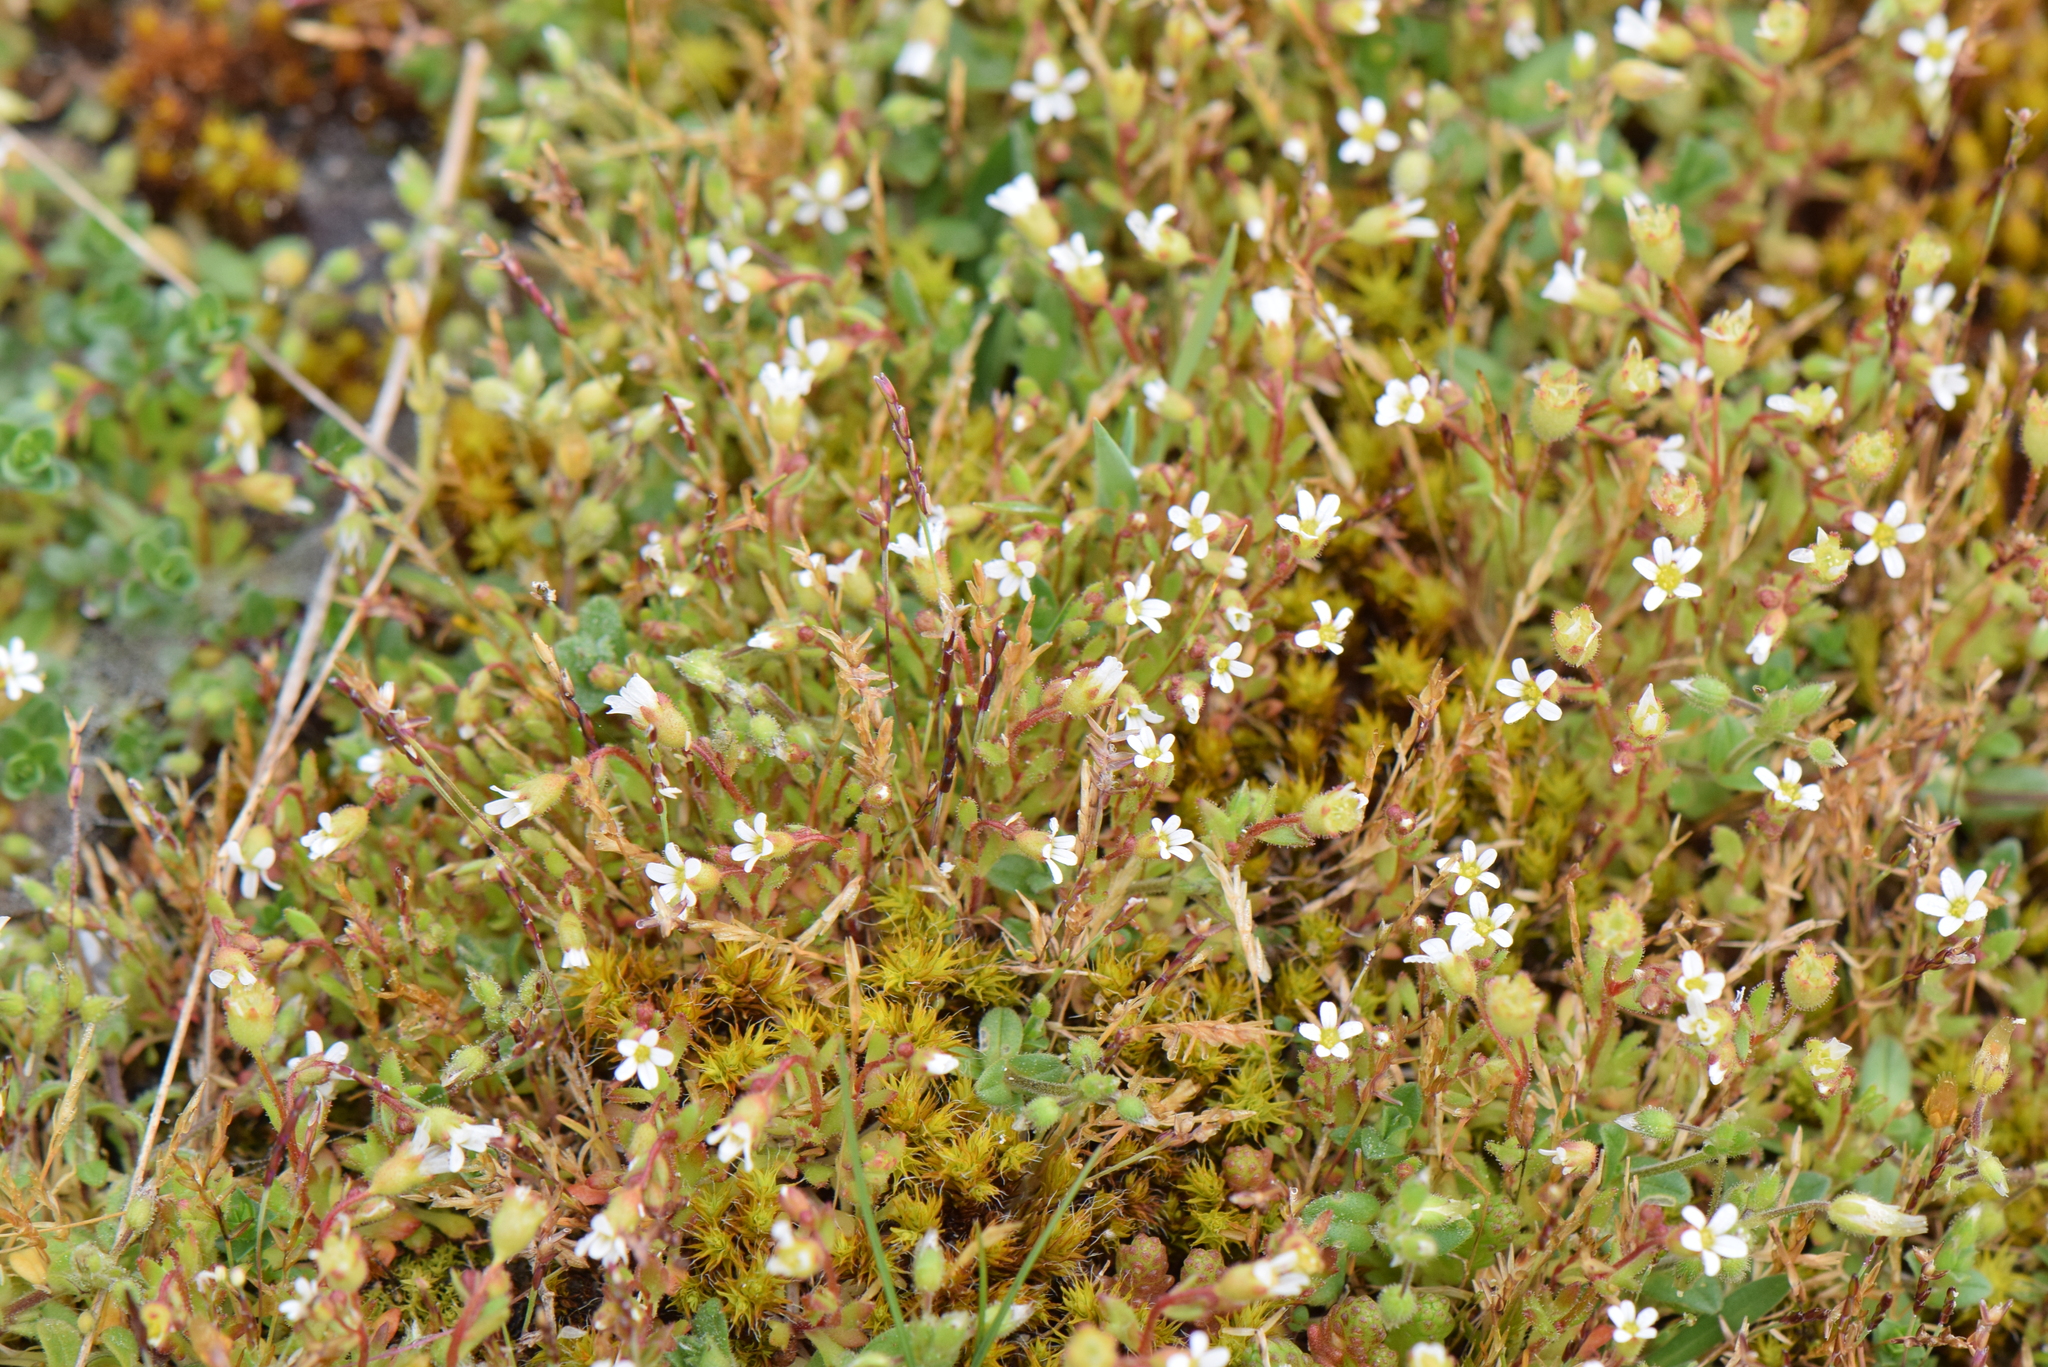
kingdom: Plantae
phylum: Tracheophyta
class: Magnoliopsida
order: Saxifragales
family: Saxifragaceae
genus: Saxifraga
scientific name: Saxifraga tridactylites
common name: Rue-leaved saxifrage
